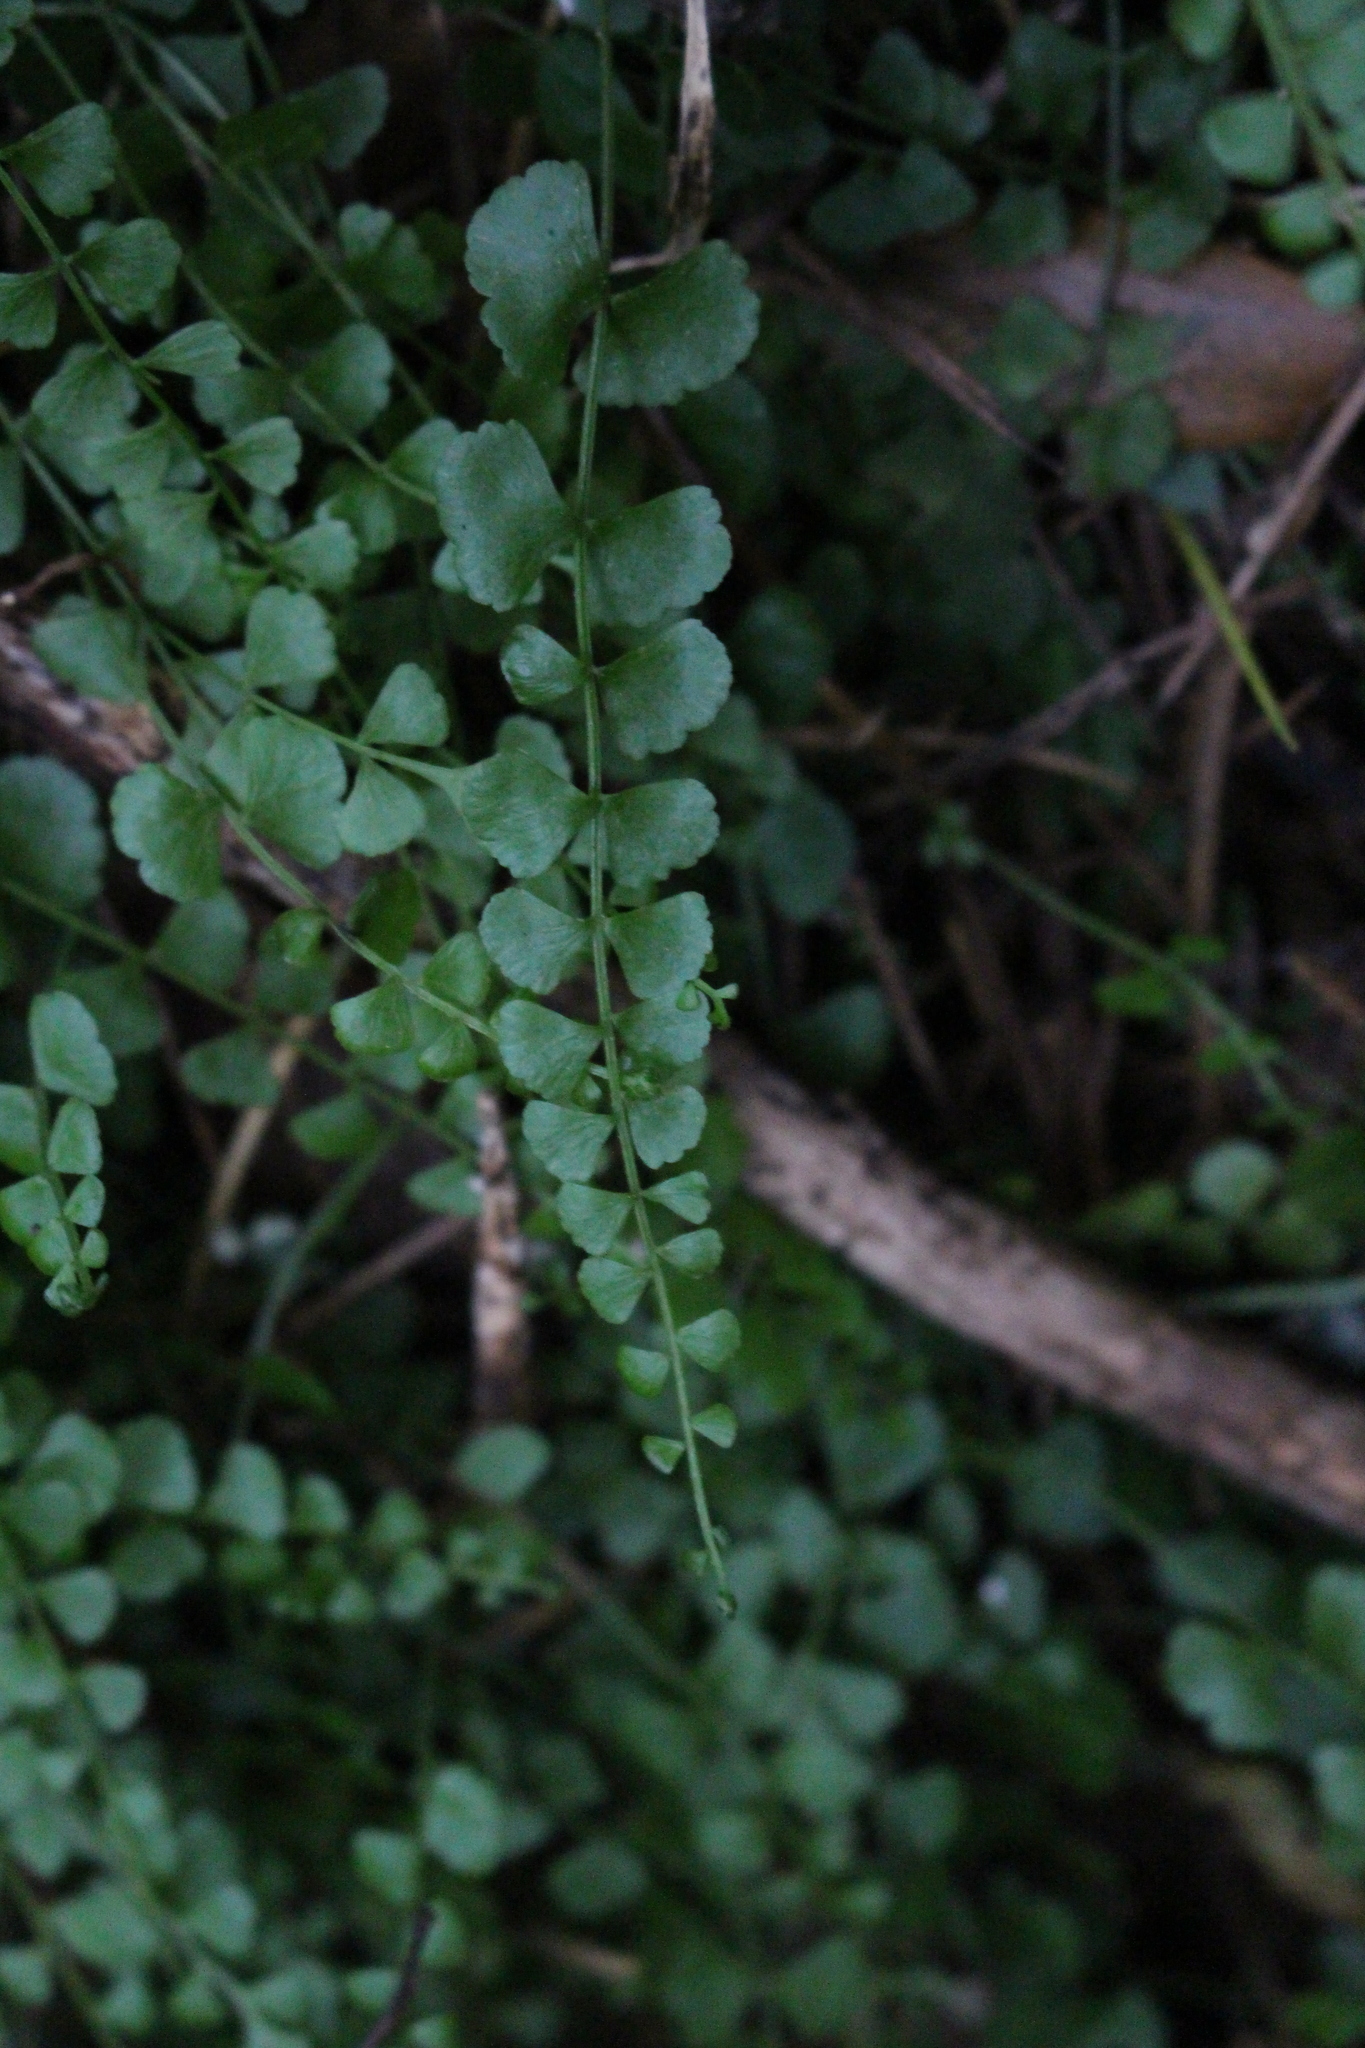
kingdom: Plantae
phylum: Tracheophyta
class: Polypodiopsida
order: Polypodiales
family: Aspleniaceae
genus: Asplenium
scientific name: Asplenium flabellifolium
